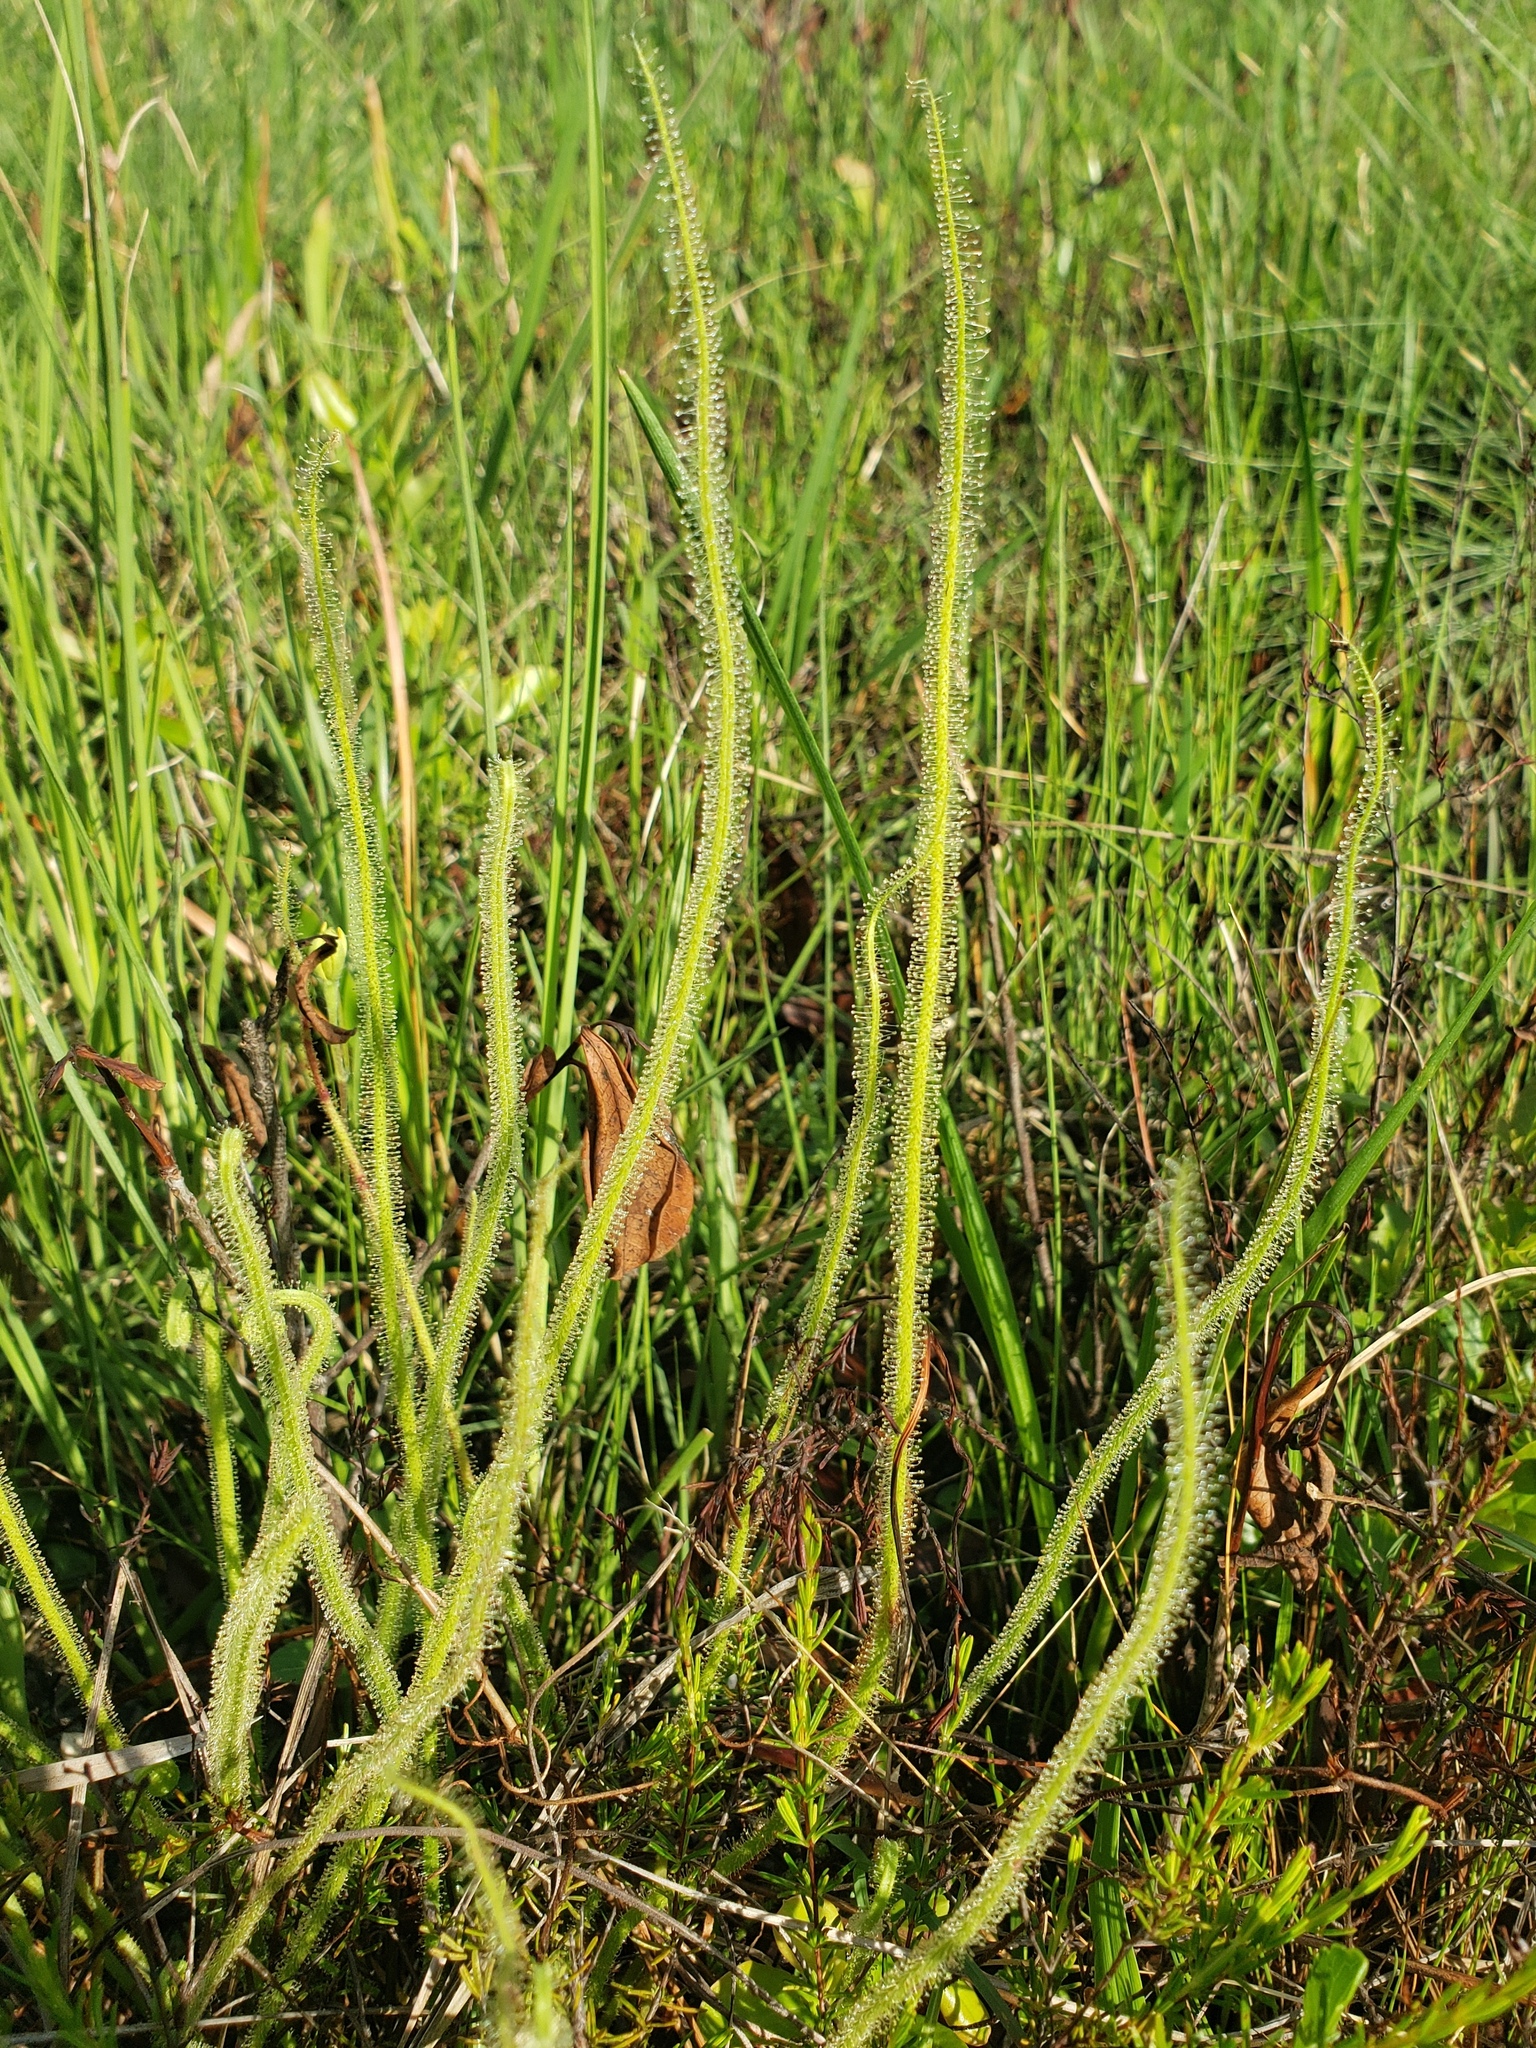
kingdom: Plantae
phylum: Tracheophyta
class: Magnoliopsida
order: Caryophyllales
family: Droseraceae
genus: Drosera
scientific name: Drosera filiformis
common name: Dew-thread
